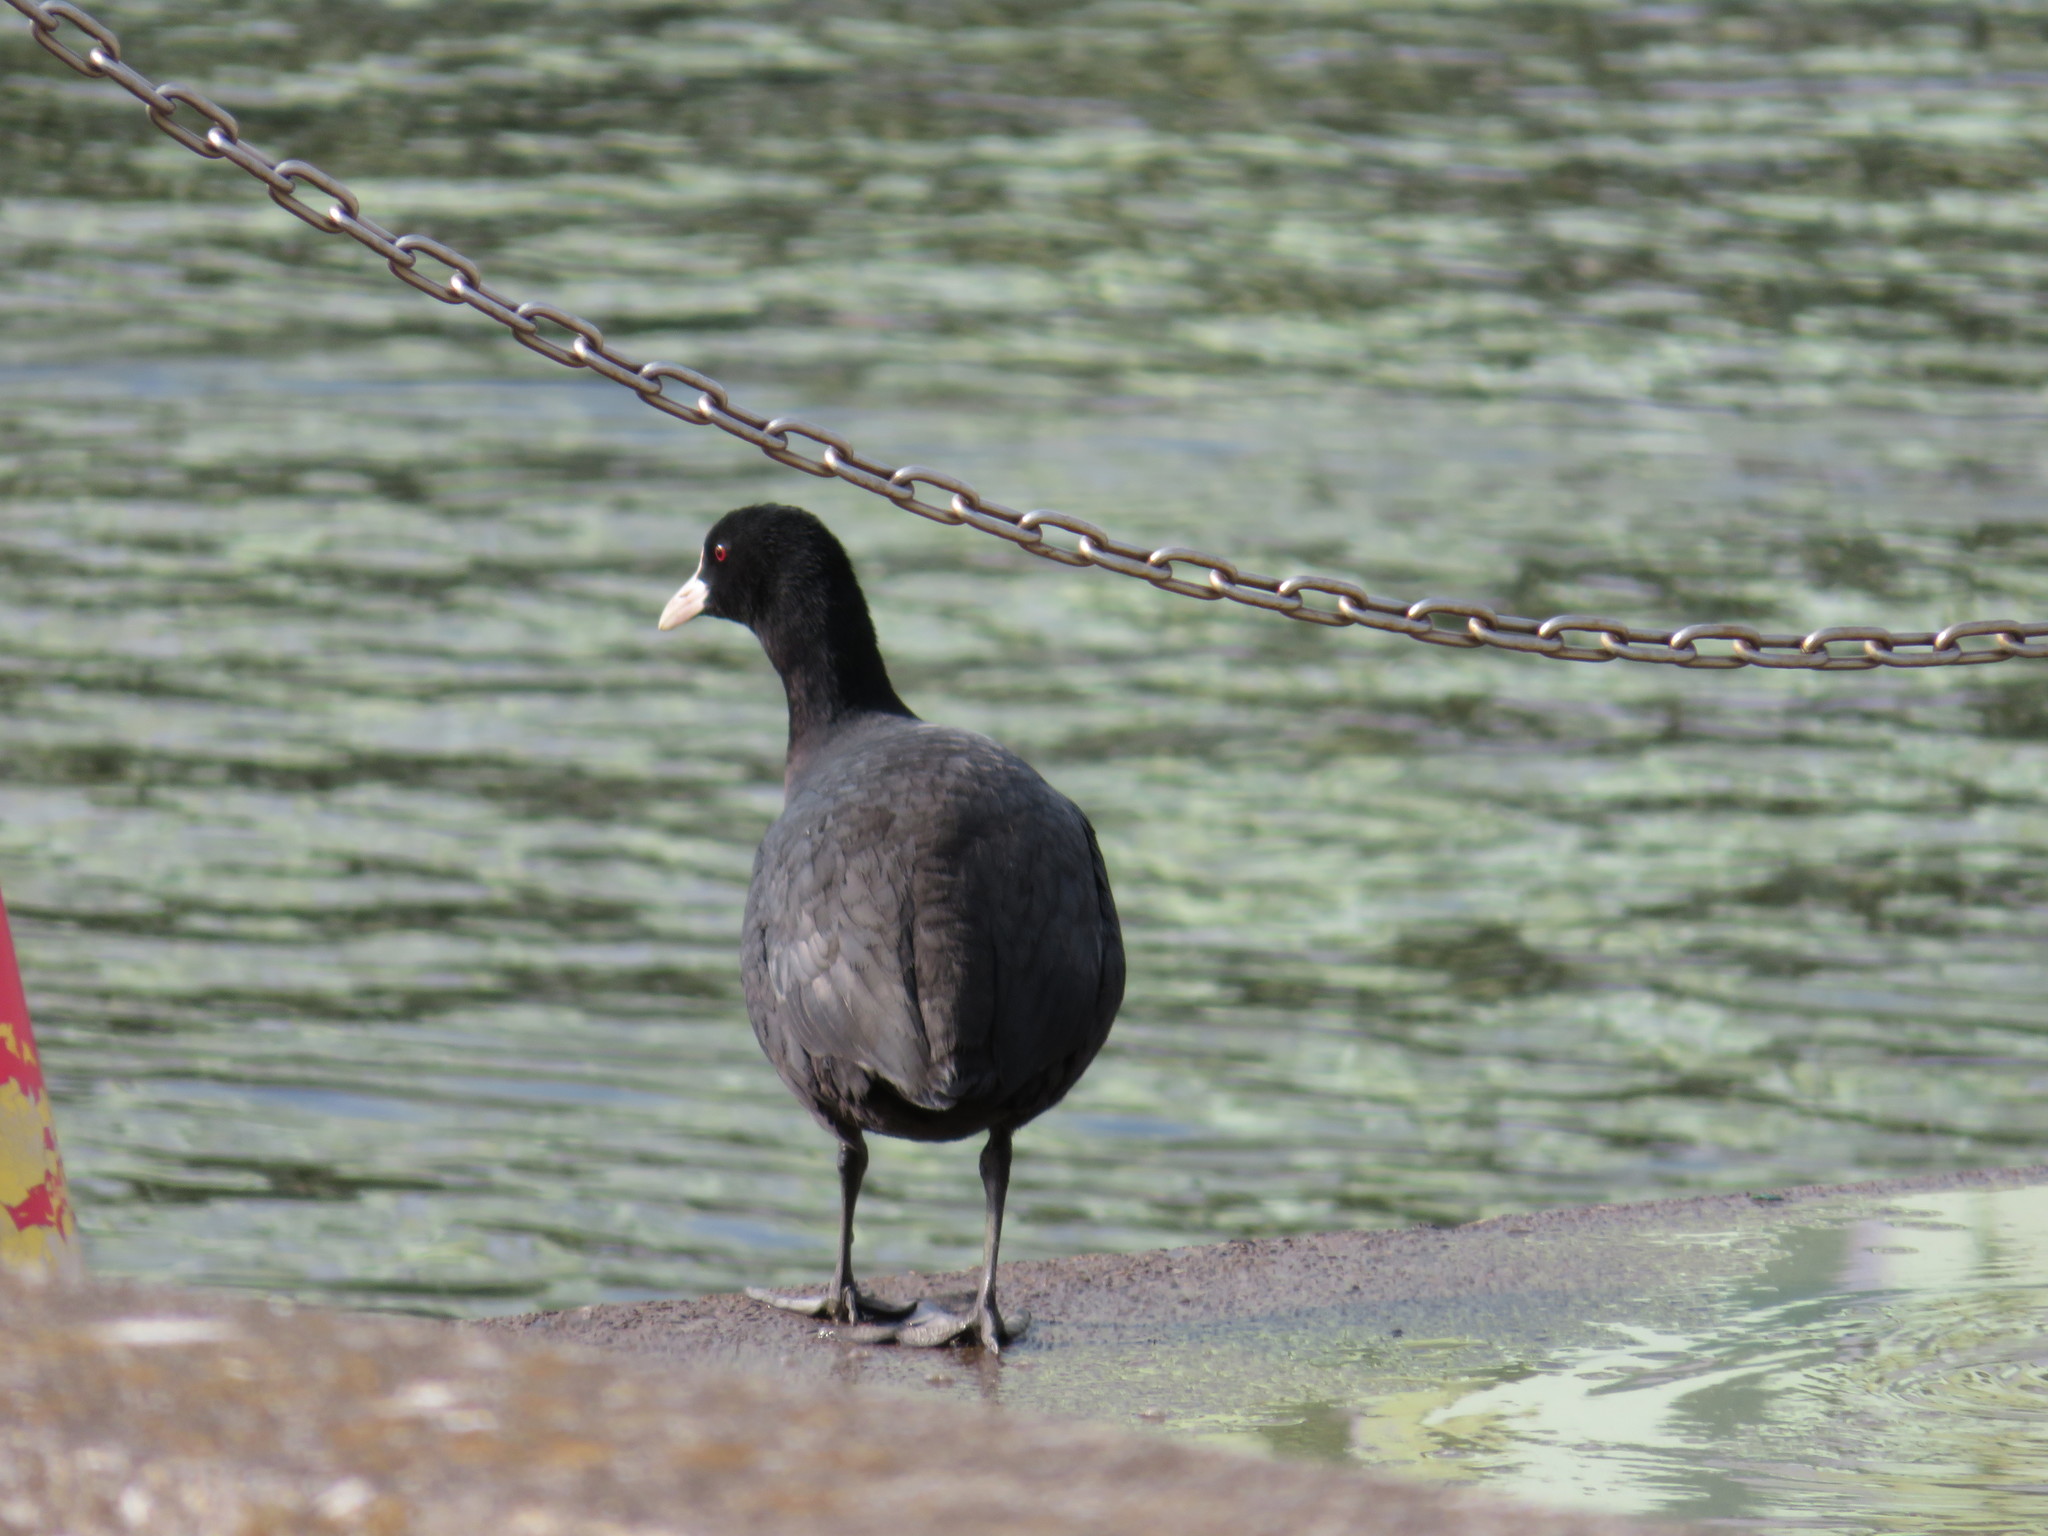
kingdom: Animalia
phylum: Chordata
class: Aves
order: Gruiformes
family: Rallidae
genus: Fulica
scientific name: Fulica atra
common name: Eurasian coot
